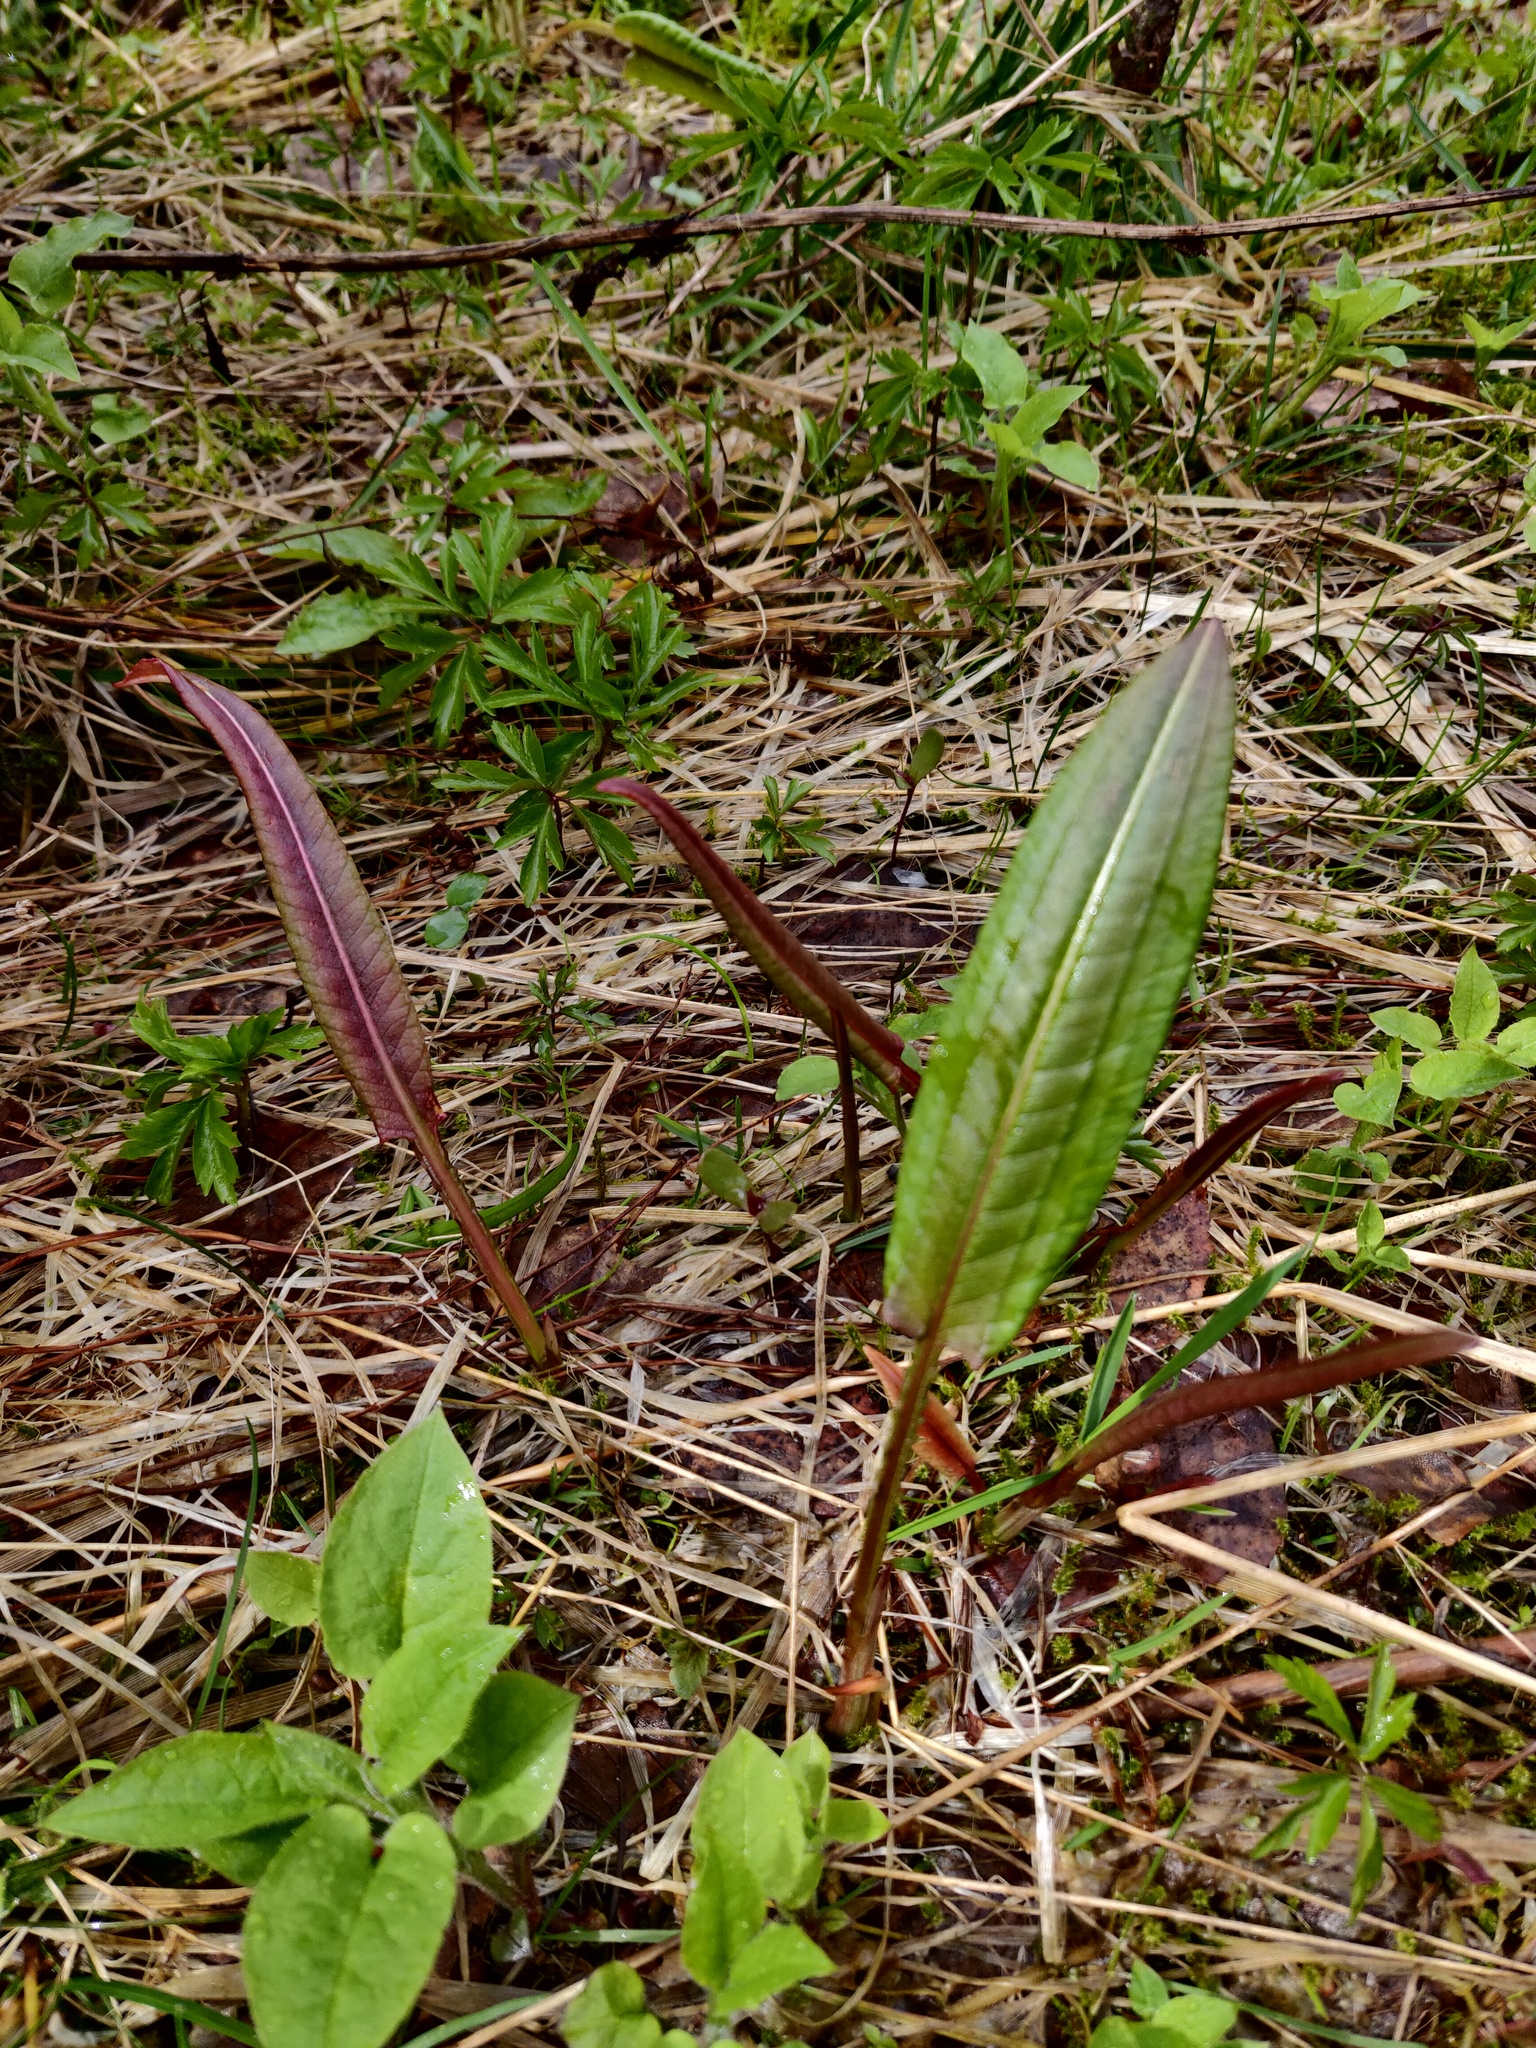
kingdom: Plantae
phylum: Tracheophyta
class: Magnoliopsida
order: Caryophyllales
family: Polygonaceae
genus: Bistorta
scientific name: Bistorta officinalis
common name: Common bistort
